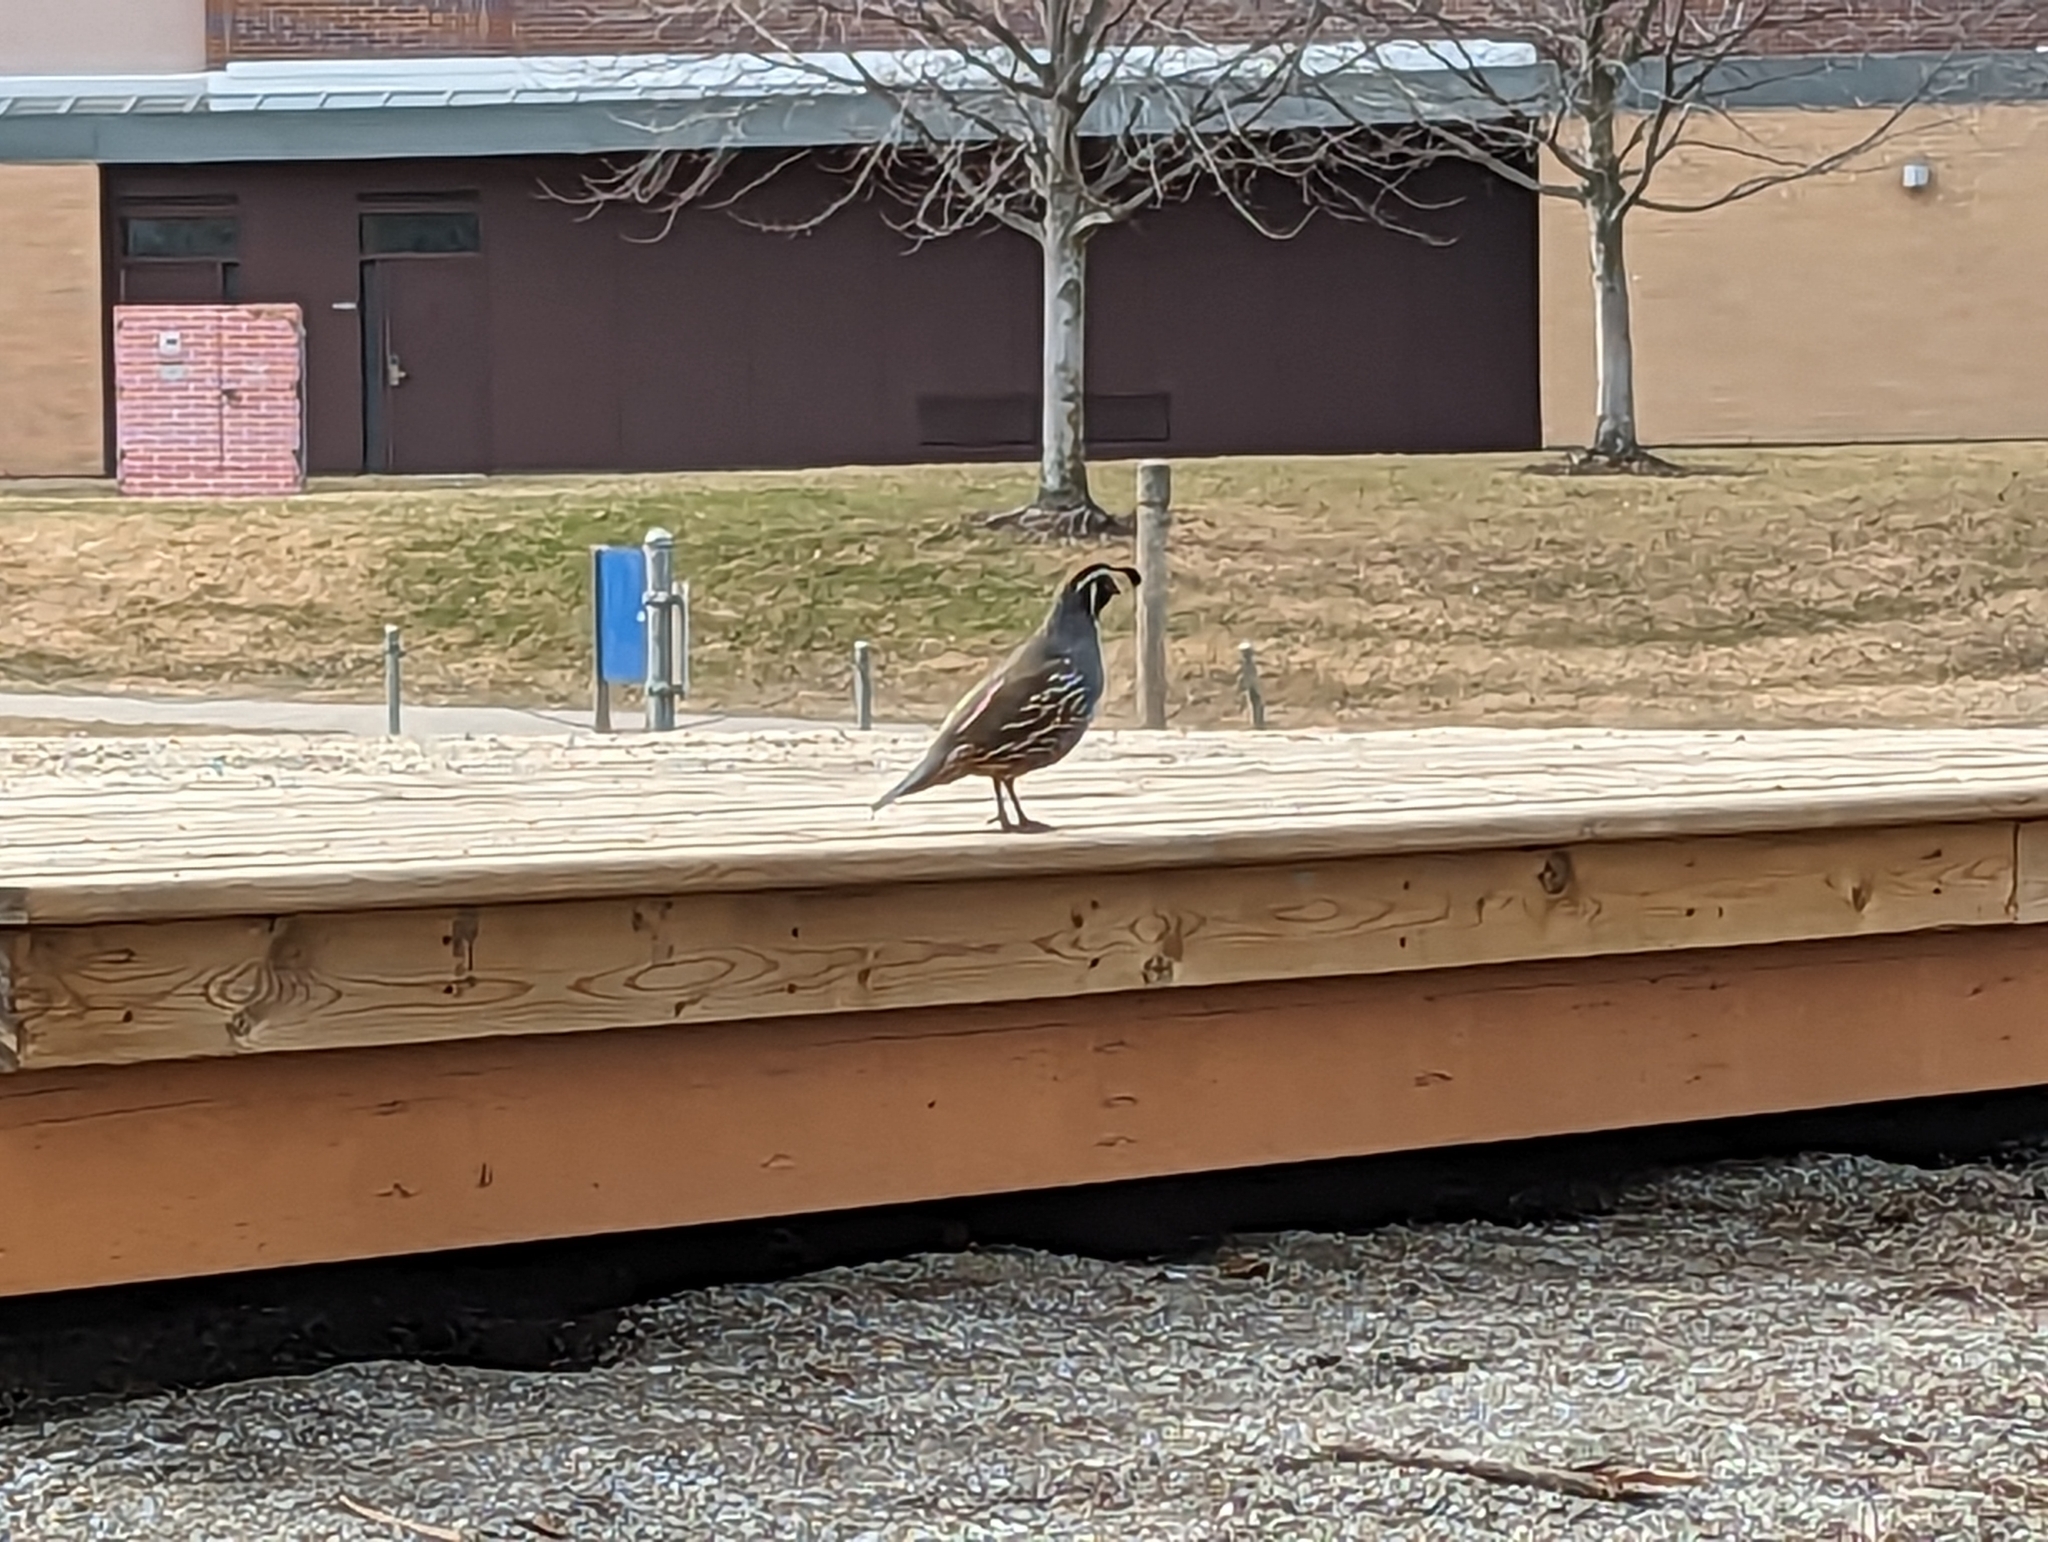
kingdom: Animalia
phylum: Chordata
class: Aves
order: Galliformes
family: Odontophoridae
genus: Callipepla
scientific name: Callipepla californica
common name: California quail
